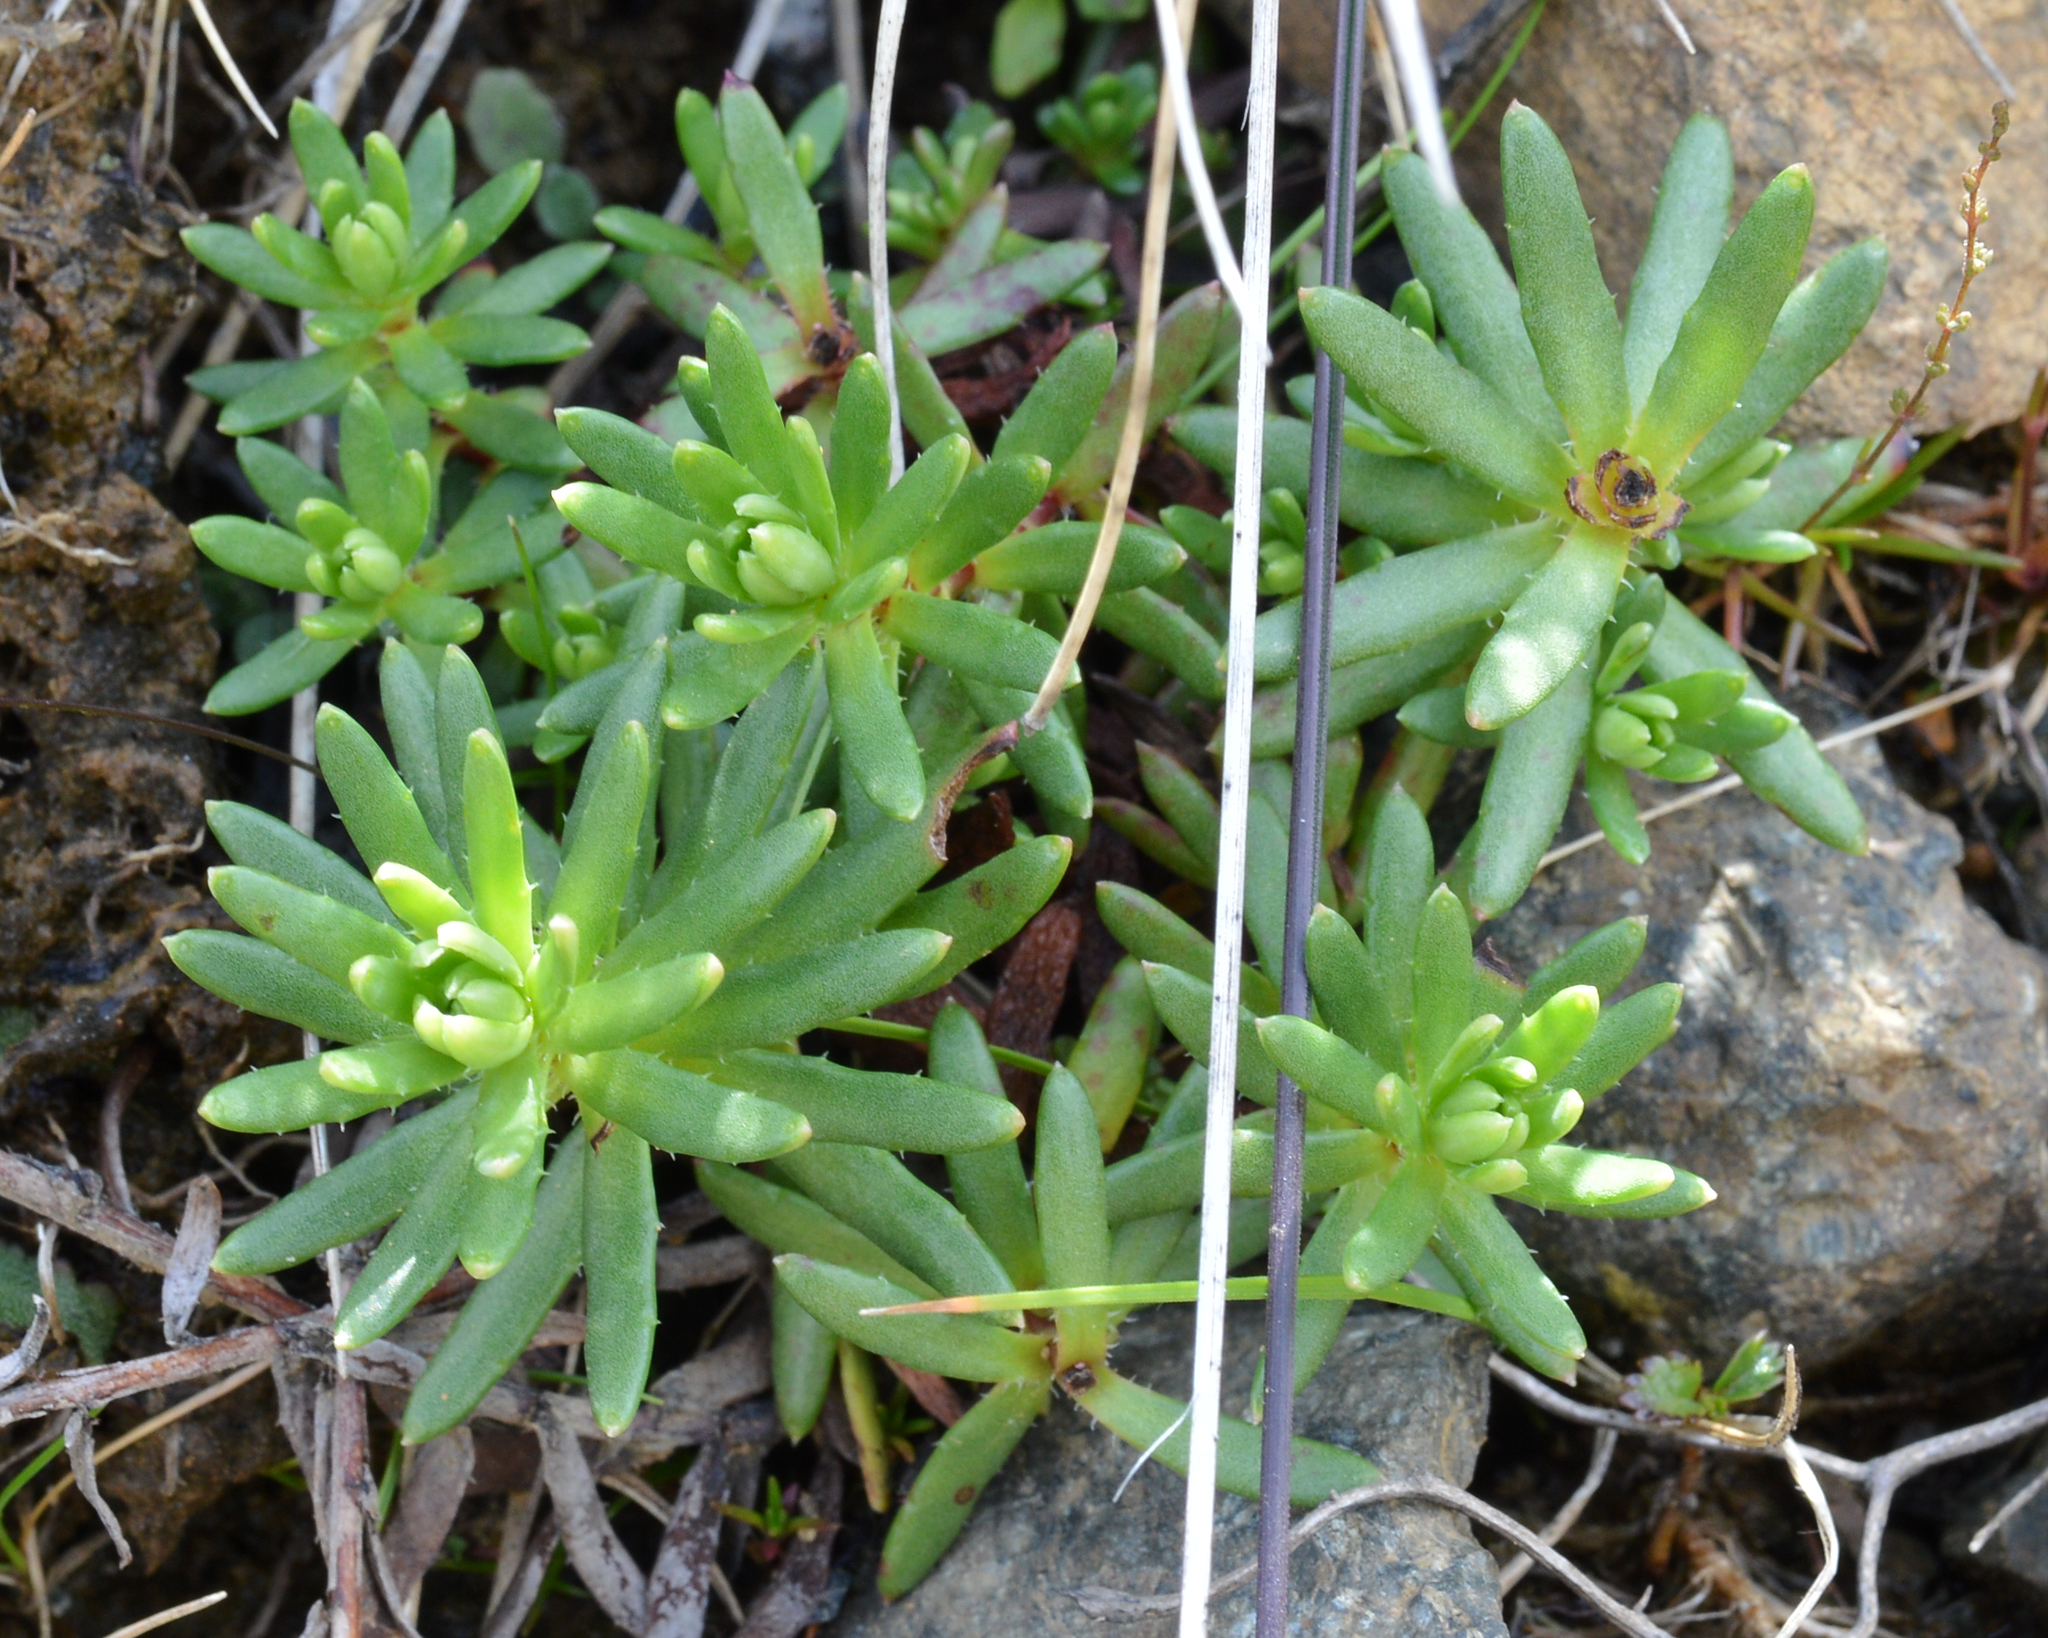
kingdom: Plantae
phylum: Tracheophyta
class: Magnoliopsida
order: Saxifragales
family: Saxifragaceae
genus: Saxifraga
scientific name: Saxifraga aizoides
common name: Yellow mountain saxifrage
